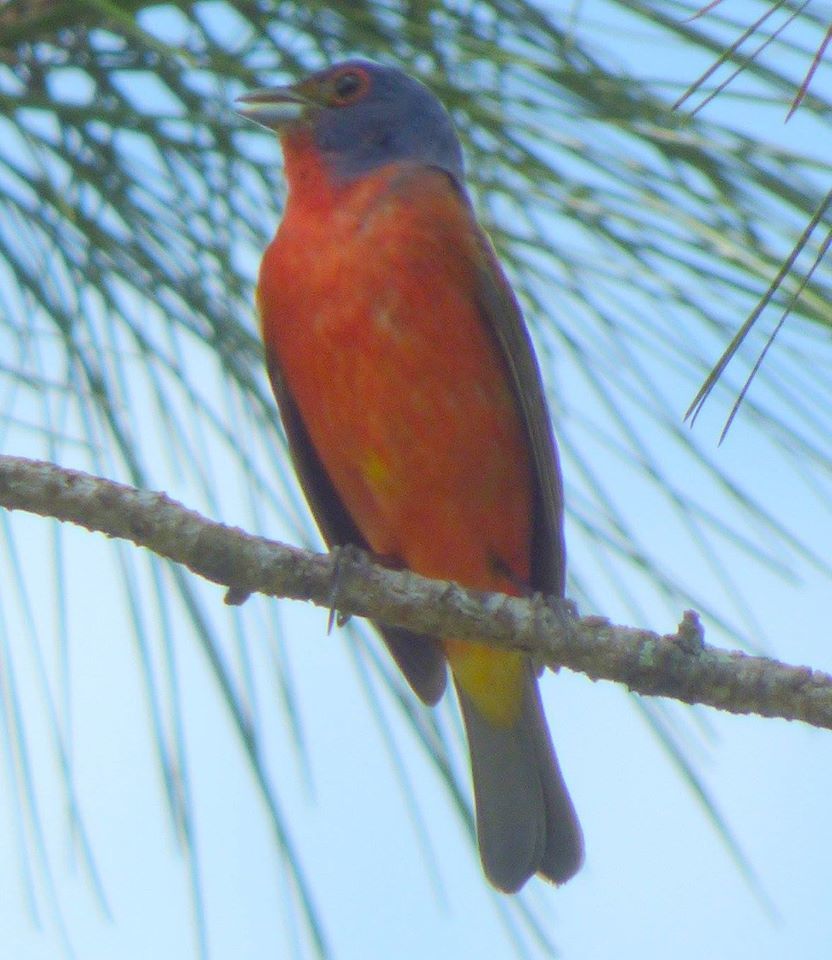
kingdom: Animalia
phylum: Chordata
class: Aves
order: Passeriformes
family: Cardinalidae
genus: Passerina
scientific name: Passerina ciris
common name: Painted bunting
